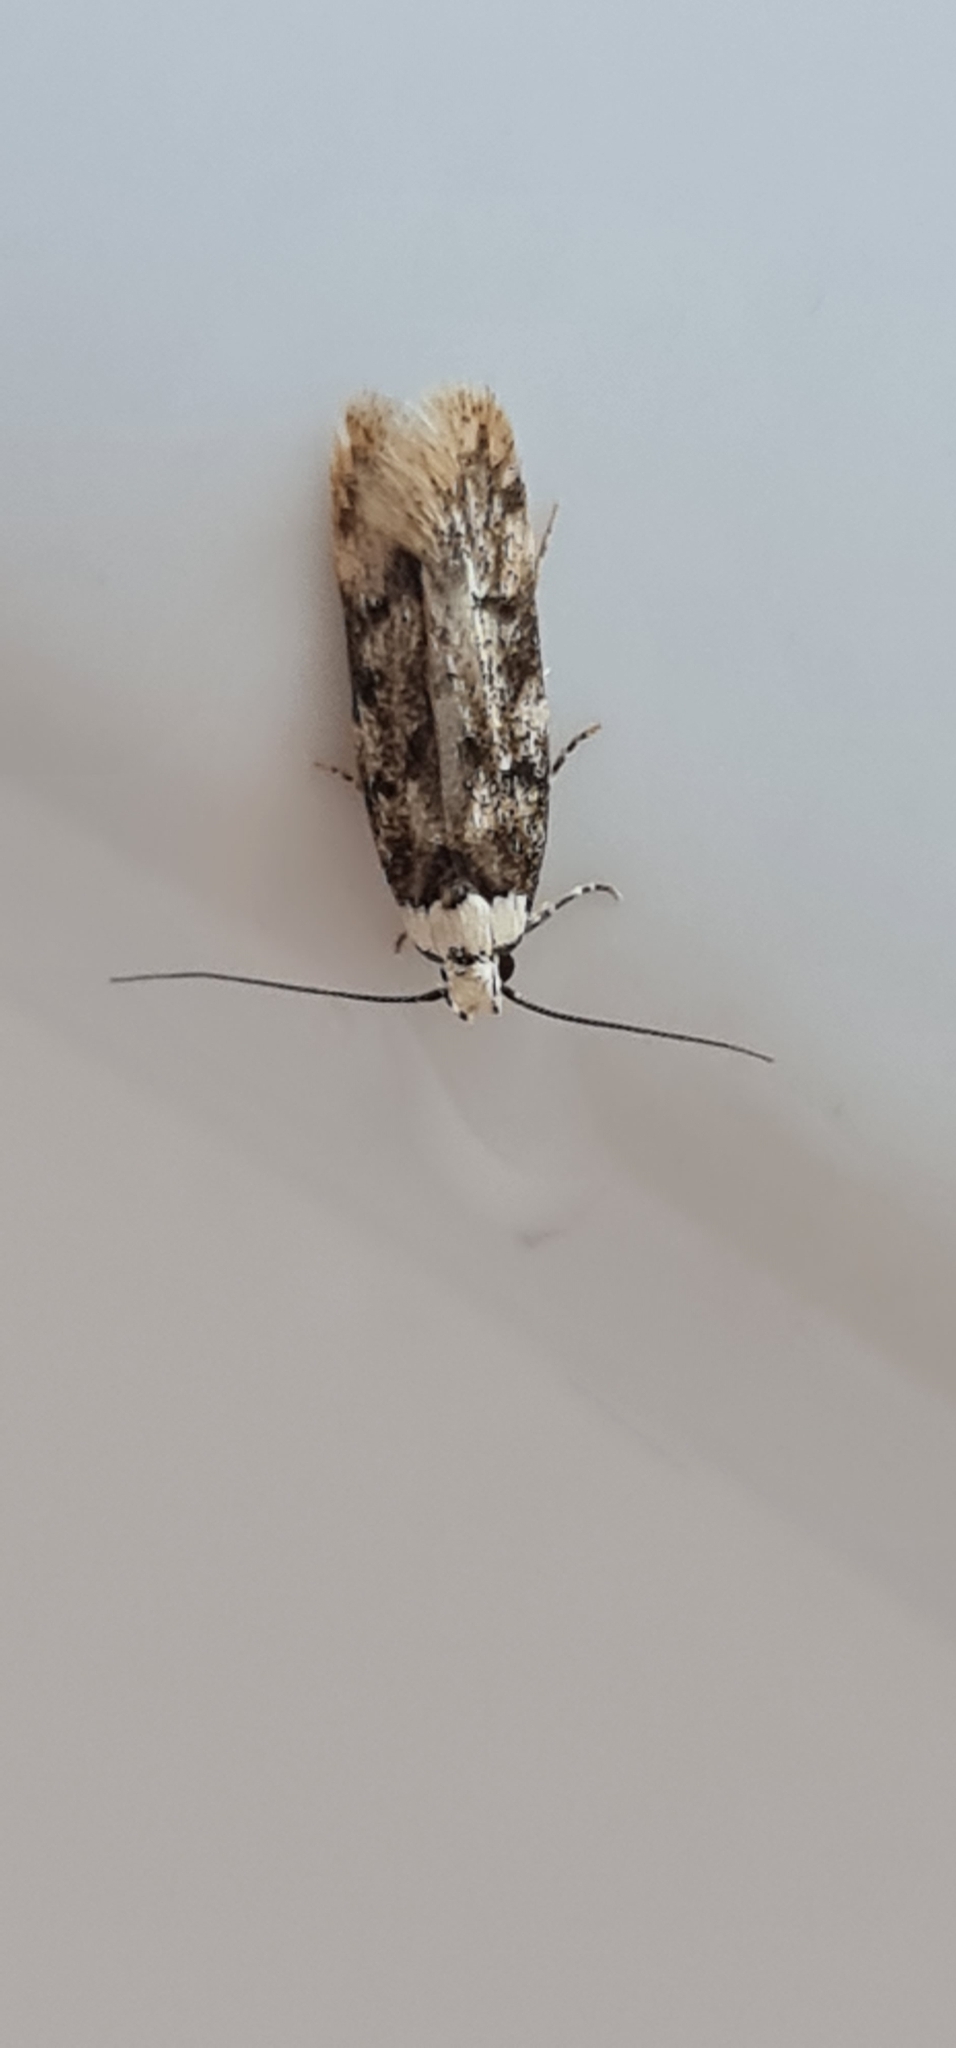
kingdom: Animalia
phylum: Arthropoda
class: Insecta
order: Lepidoptera
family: Oecophoridae
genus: Endrosis
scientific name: Endrosis sarcitrella
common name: White-shouldered house moth
